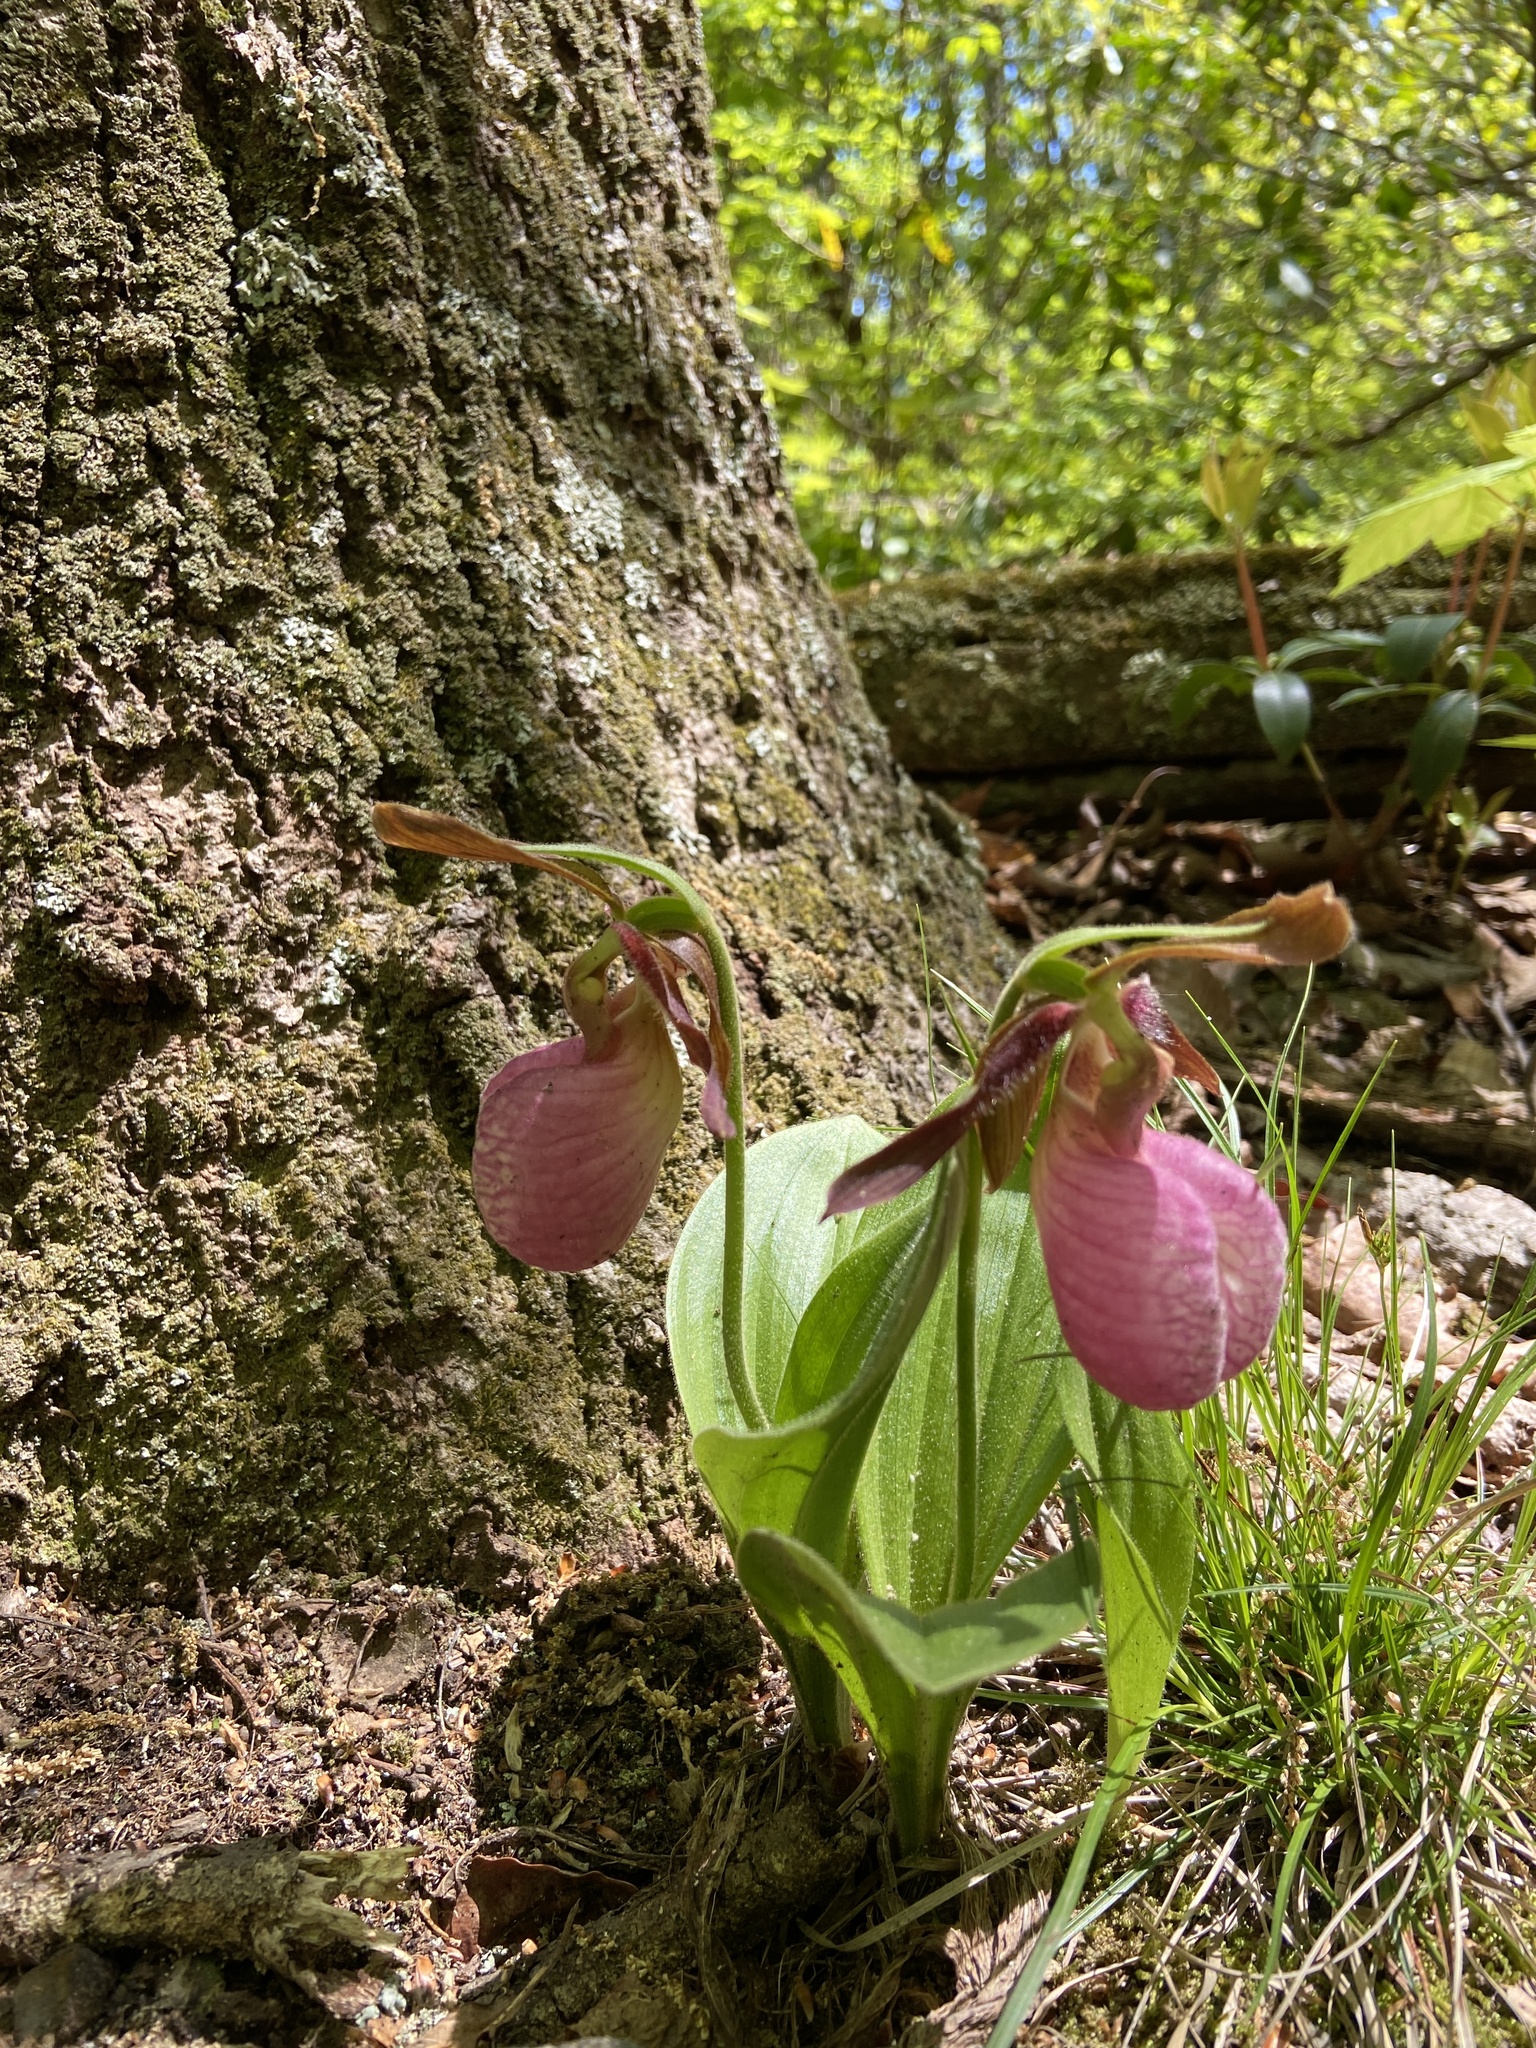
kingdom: Plantae
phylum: Tracheophyta
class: Liliopsida
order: Asparagales
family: Orchidaceae
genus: Cypripedium
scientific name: Cypripedium acaule
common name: Pink lady's-slipper
